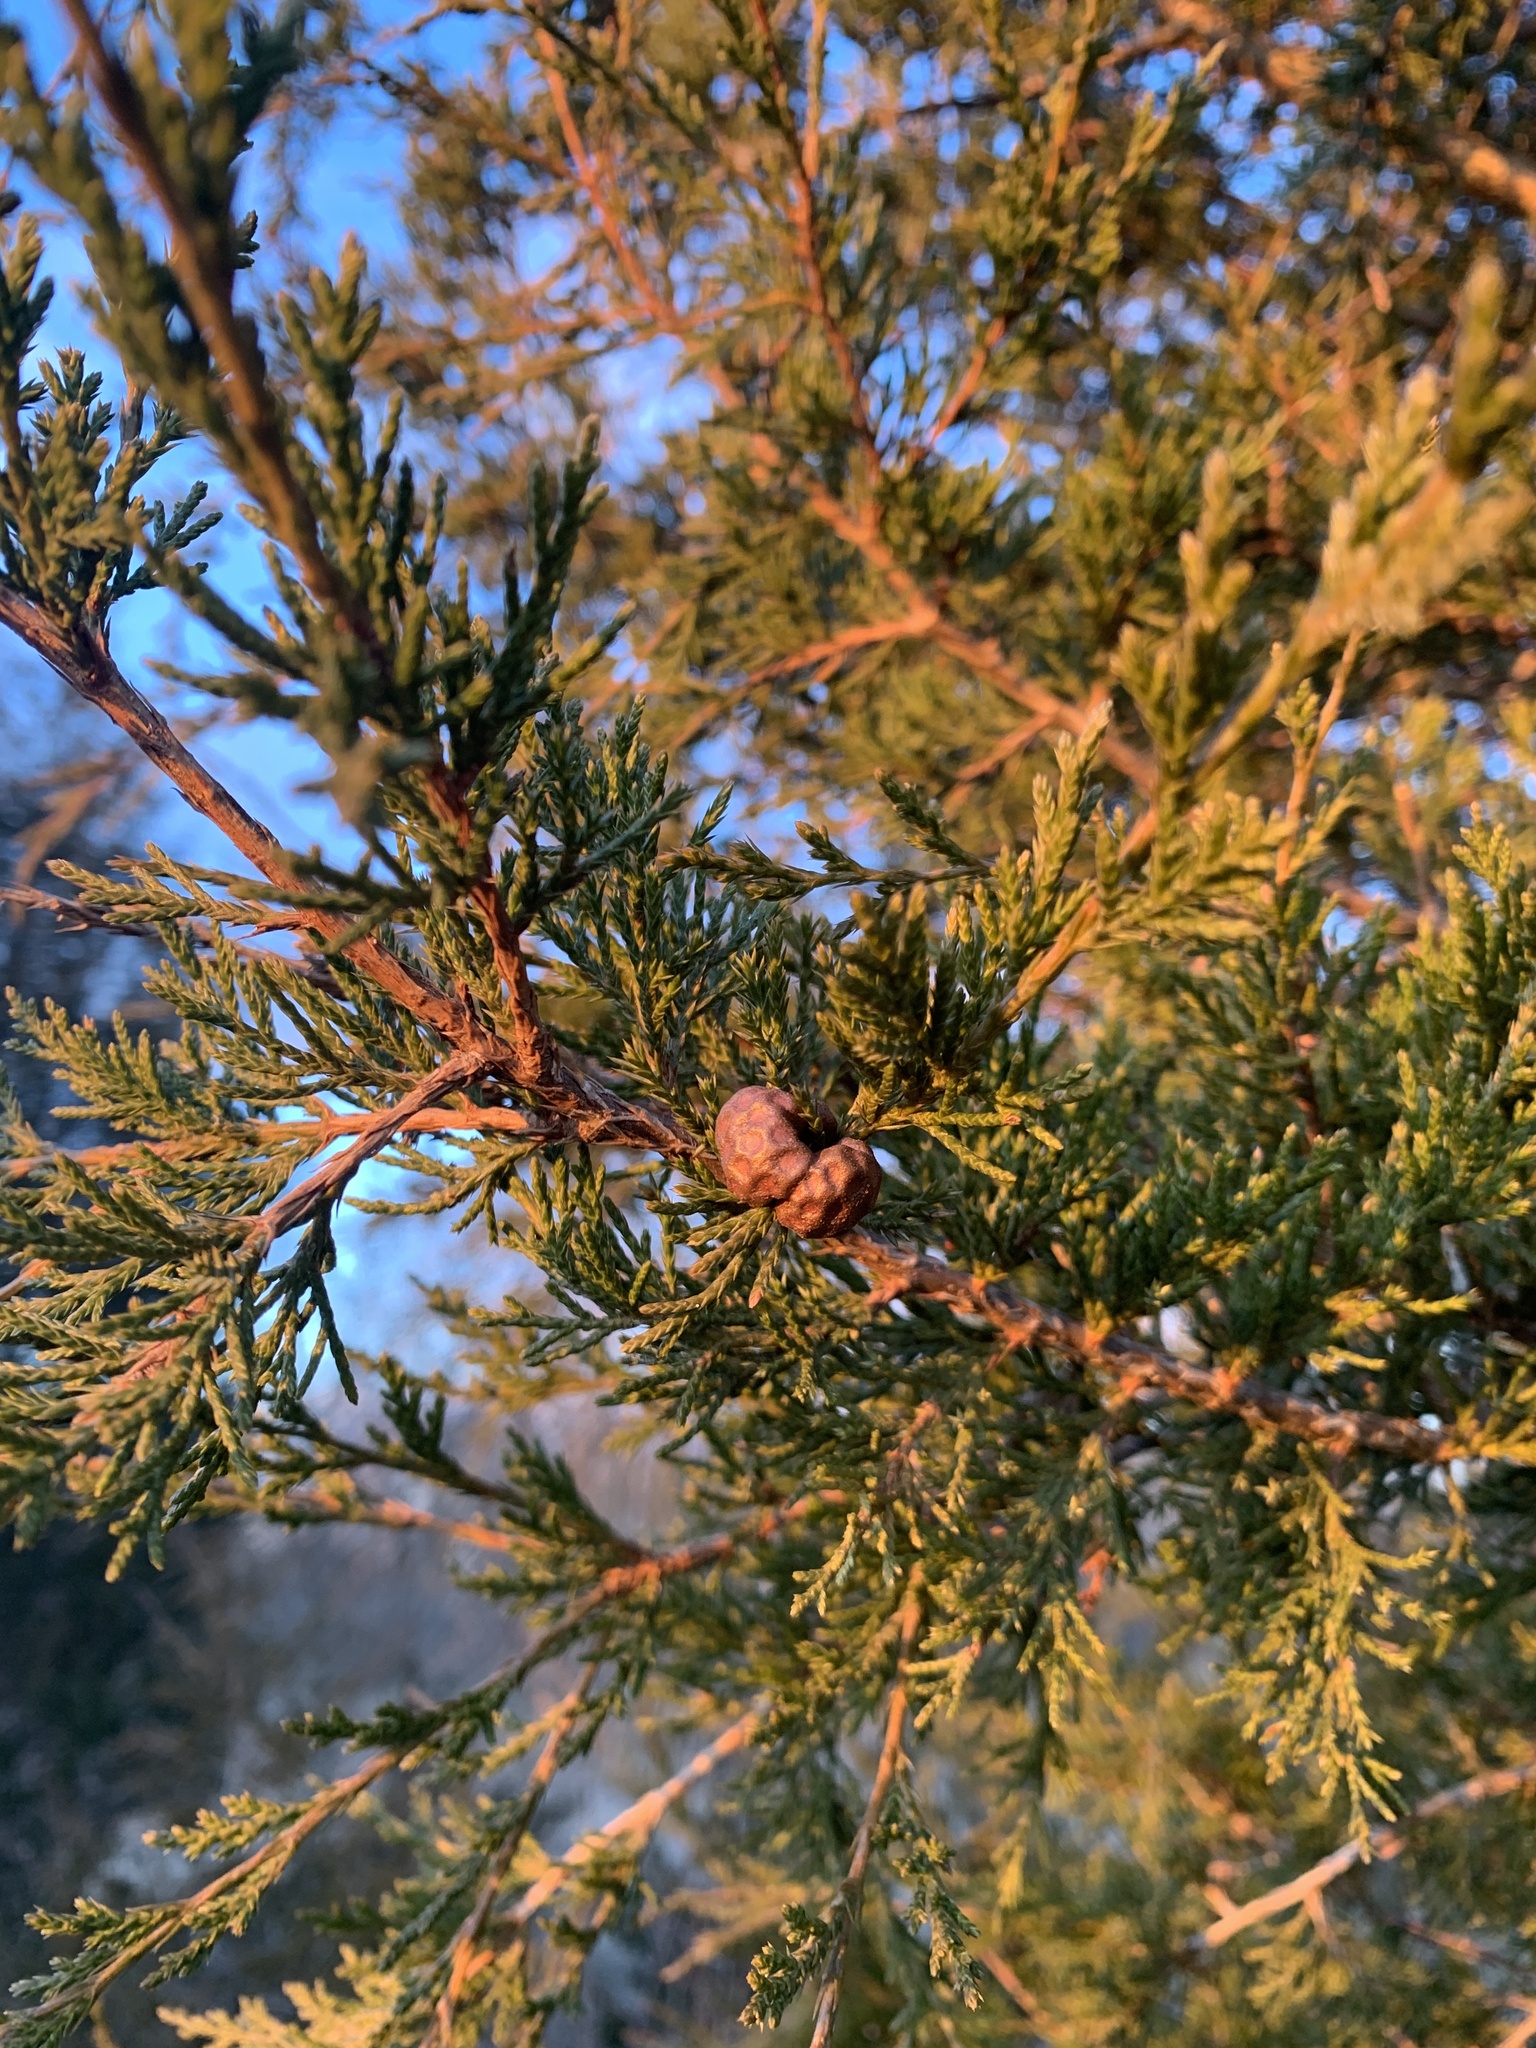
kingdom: Fungi
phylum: Basidiomycota
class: Pucciniomycetes
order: Pucciniales
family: Gymnosporangiaceae
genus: Gymnosporangium
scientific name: Gymnosporangium juniperi-virginianae
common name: Juniper-apple rust
